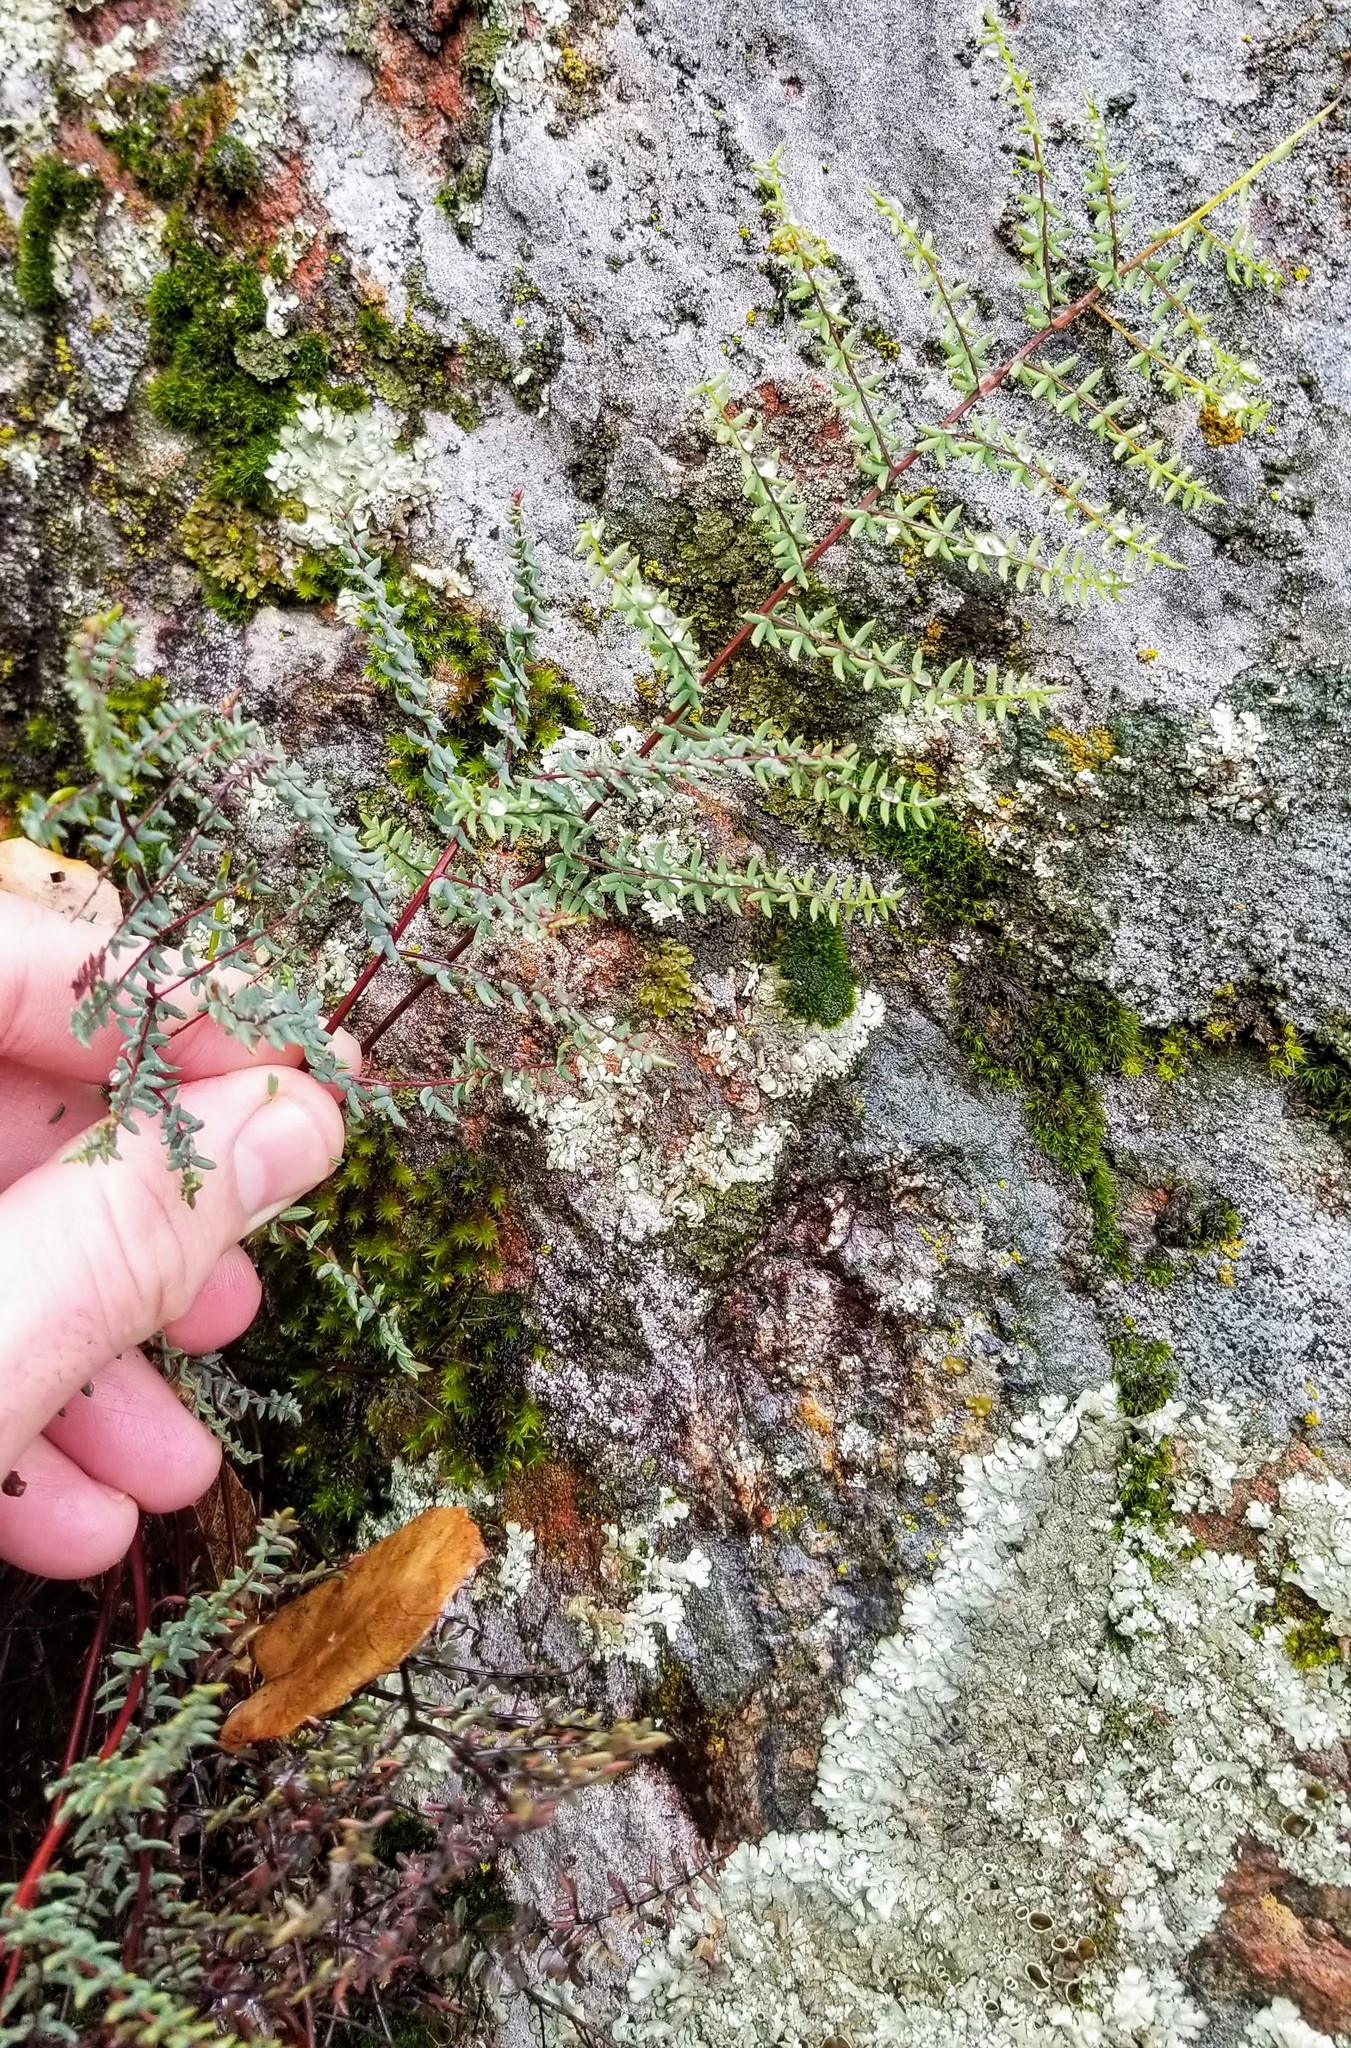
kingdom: Plantae
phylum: Tracheophyta
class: Polypodiopsida
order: Polypodiales
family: Pteridaceae
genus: Pellaea
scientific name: Pellaea mucronata
